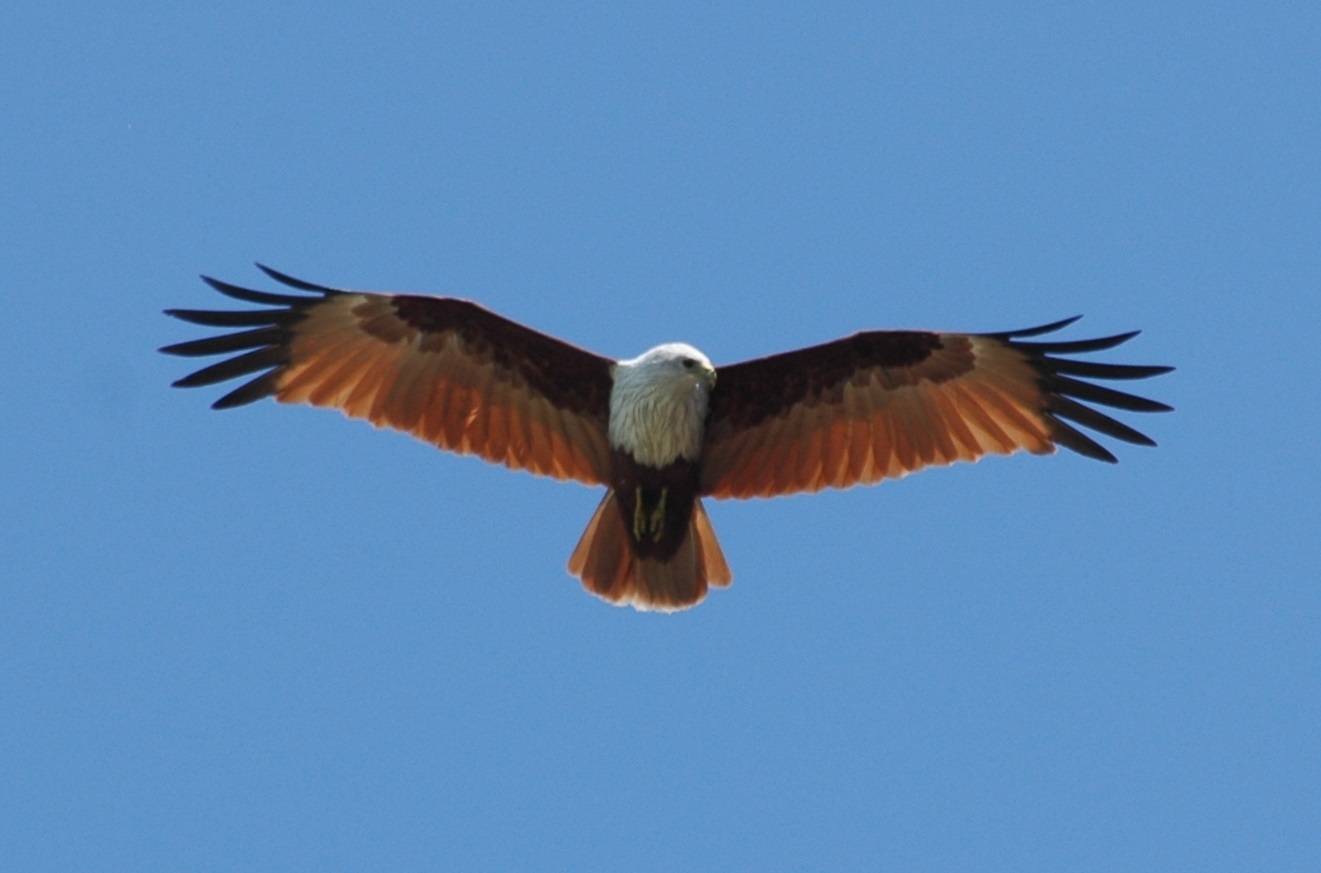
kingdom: Animalia
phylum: Chordata
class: Aves
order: Accipitriformes
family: Accipitridae
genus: Haliastur
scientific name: Haliastur indus
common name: Brahminy kite
